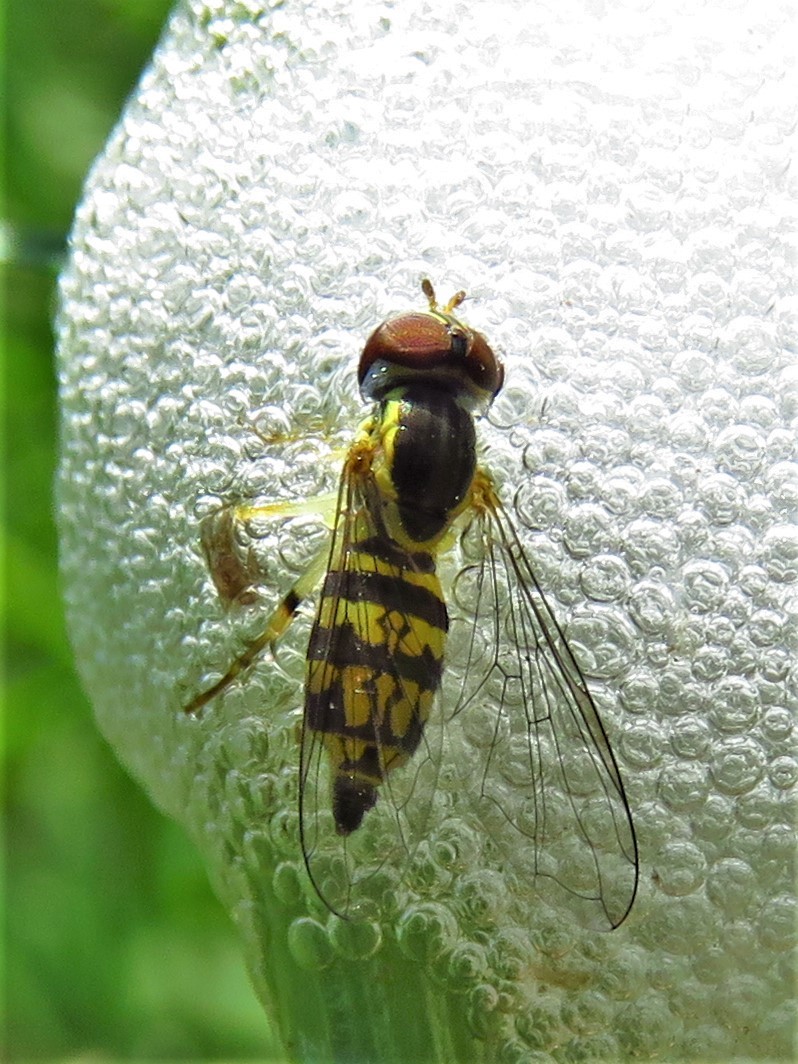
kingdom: Animalia
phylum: Arthropoda
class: Insecta
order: Diptera
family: Syrphidae
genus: Toxomerus
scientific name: Toxomerus geminatus
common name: Eastern calligrapher
